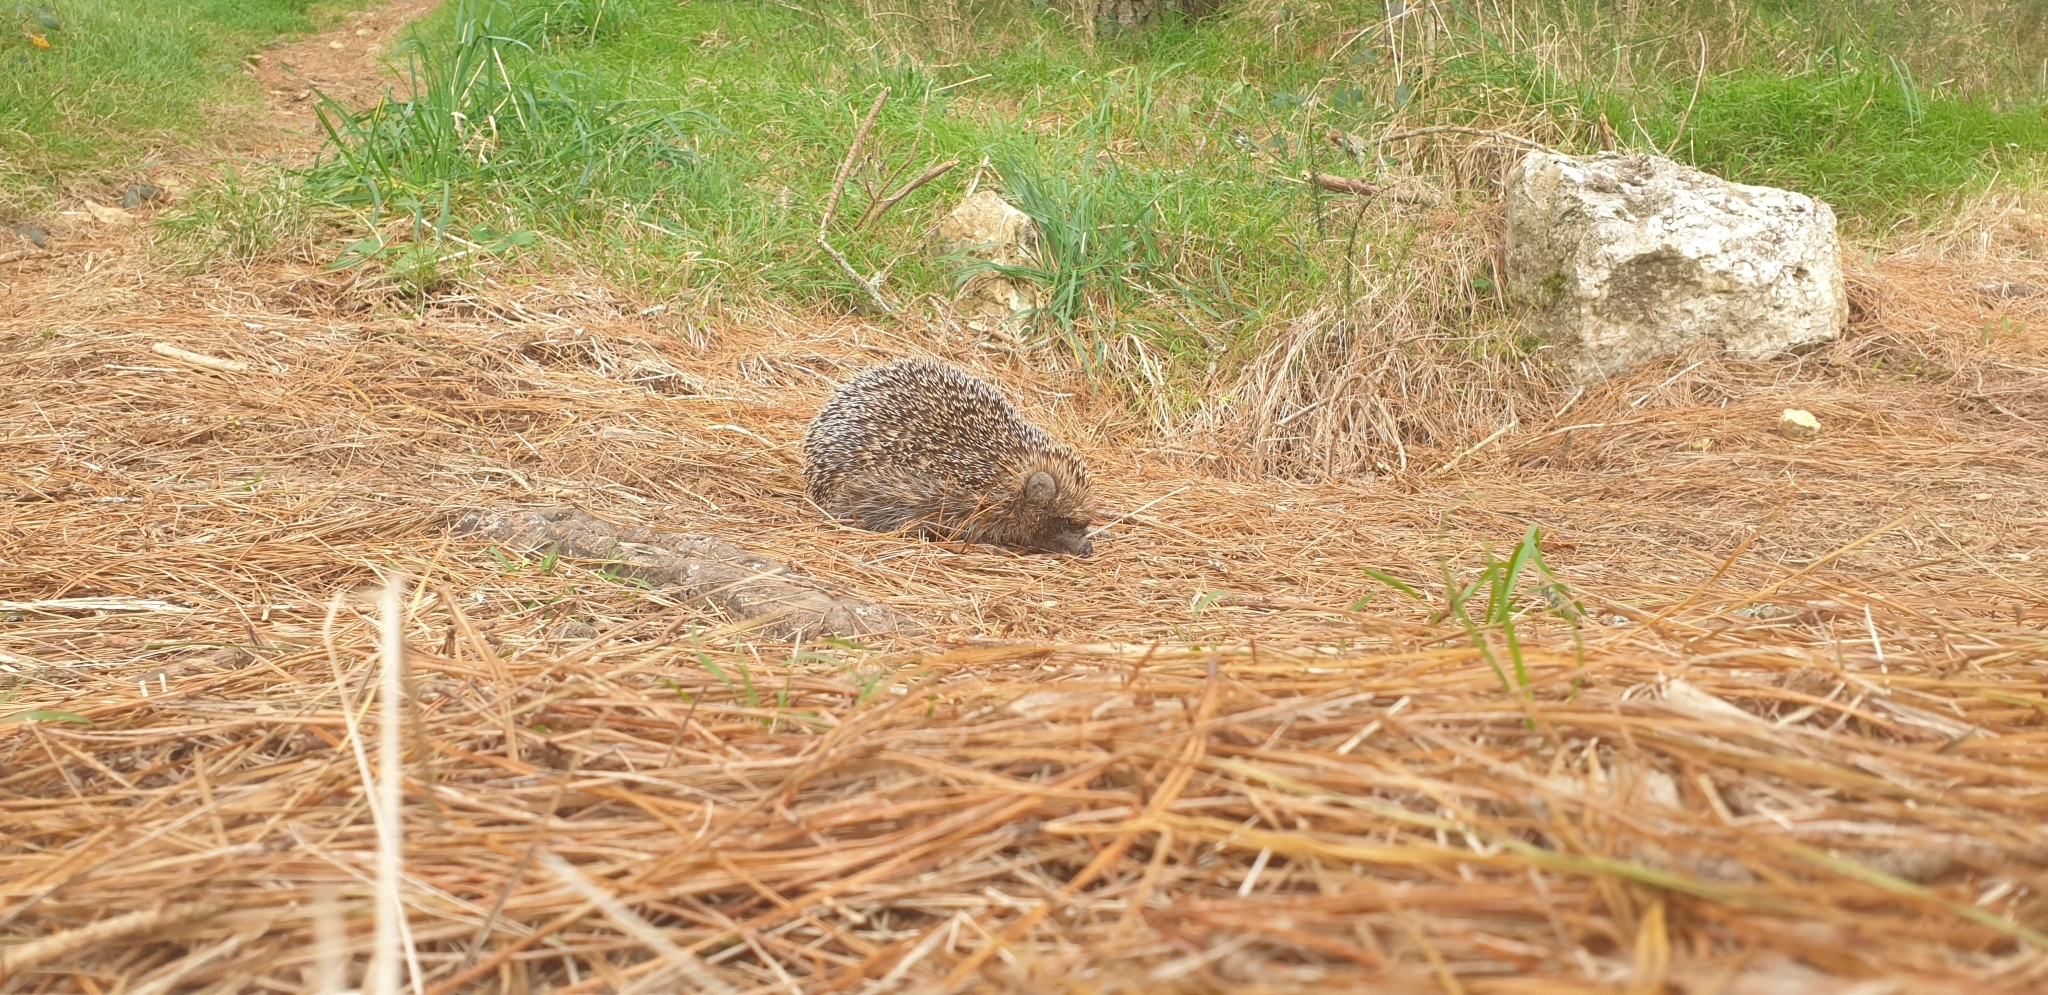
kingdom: Animalia
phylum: Chordata
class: Mammalia
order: Erinaceomorpha
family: Erinaceidae
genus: Erinaceus
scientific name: Erinaceus europaeus
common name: West european hedgehog
